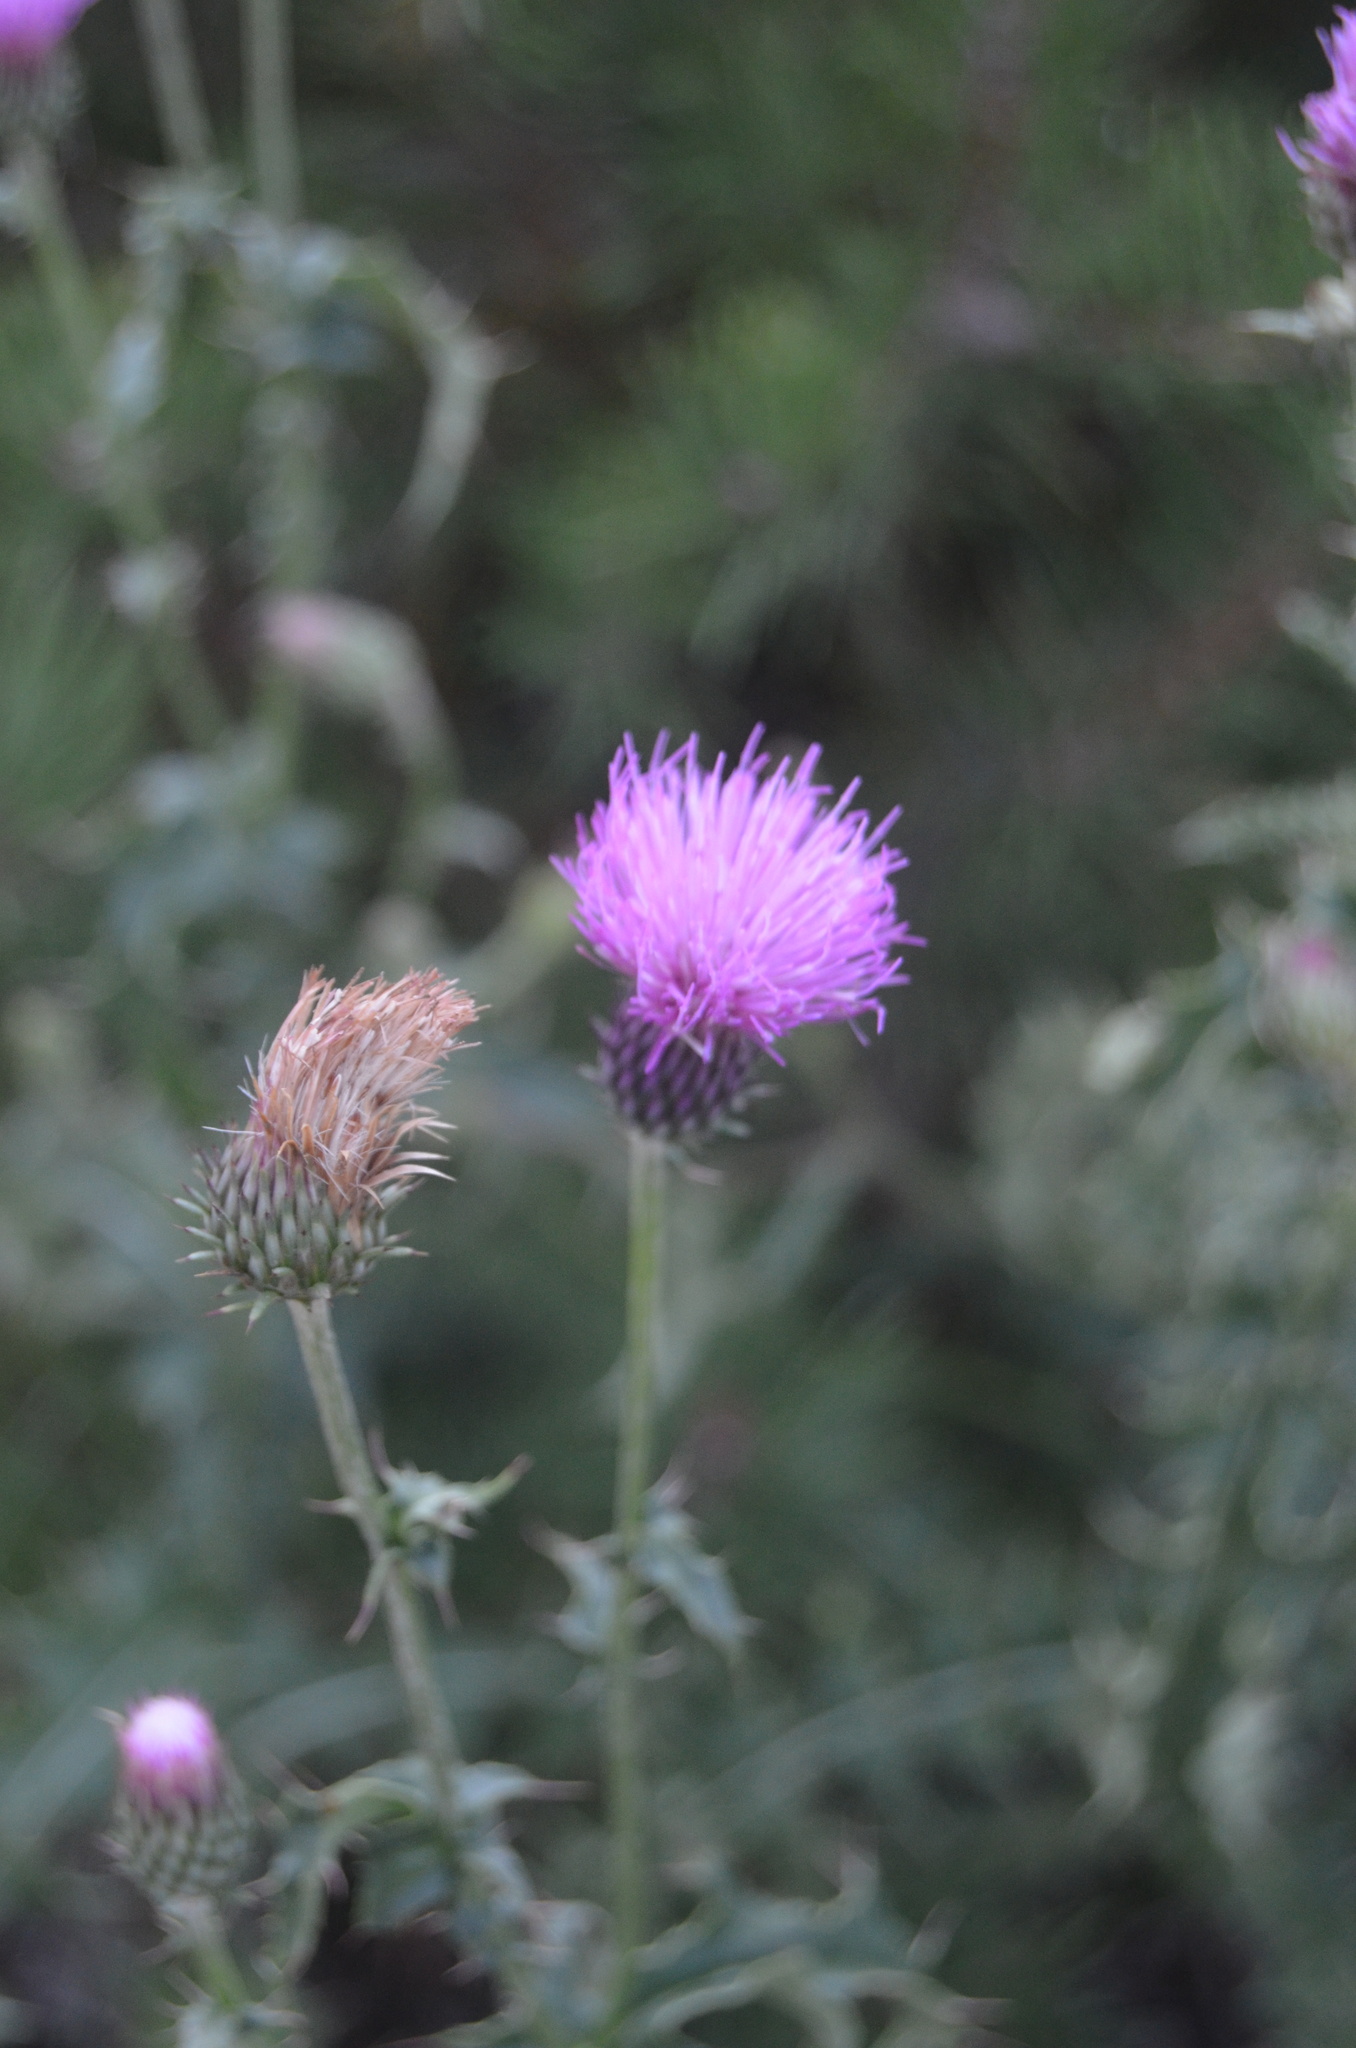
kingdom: Plantae
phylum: Tracheophyta
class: Magnoliopsida
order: Asterales
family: Asteraceae
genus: Cirsium
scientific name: Cirsium vulgare
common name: Bull thistle
